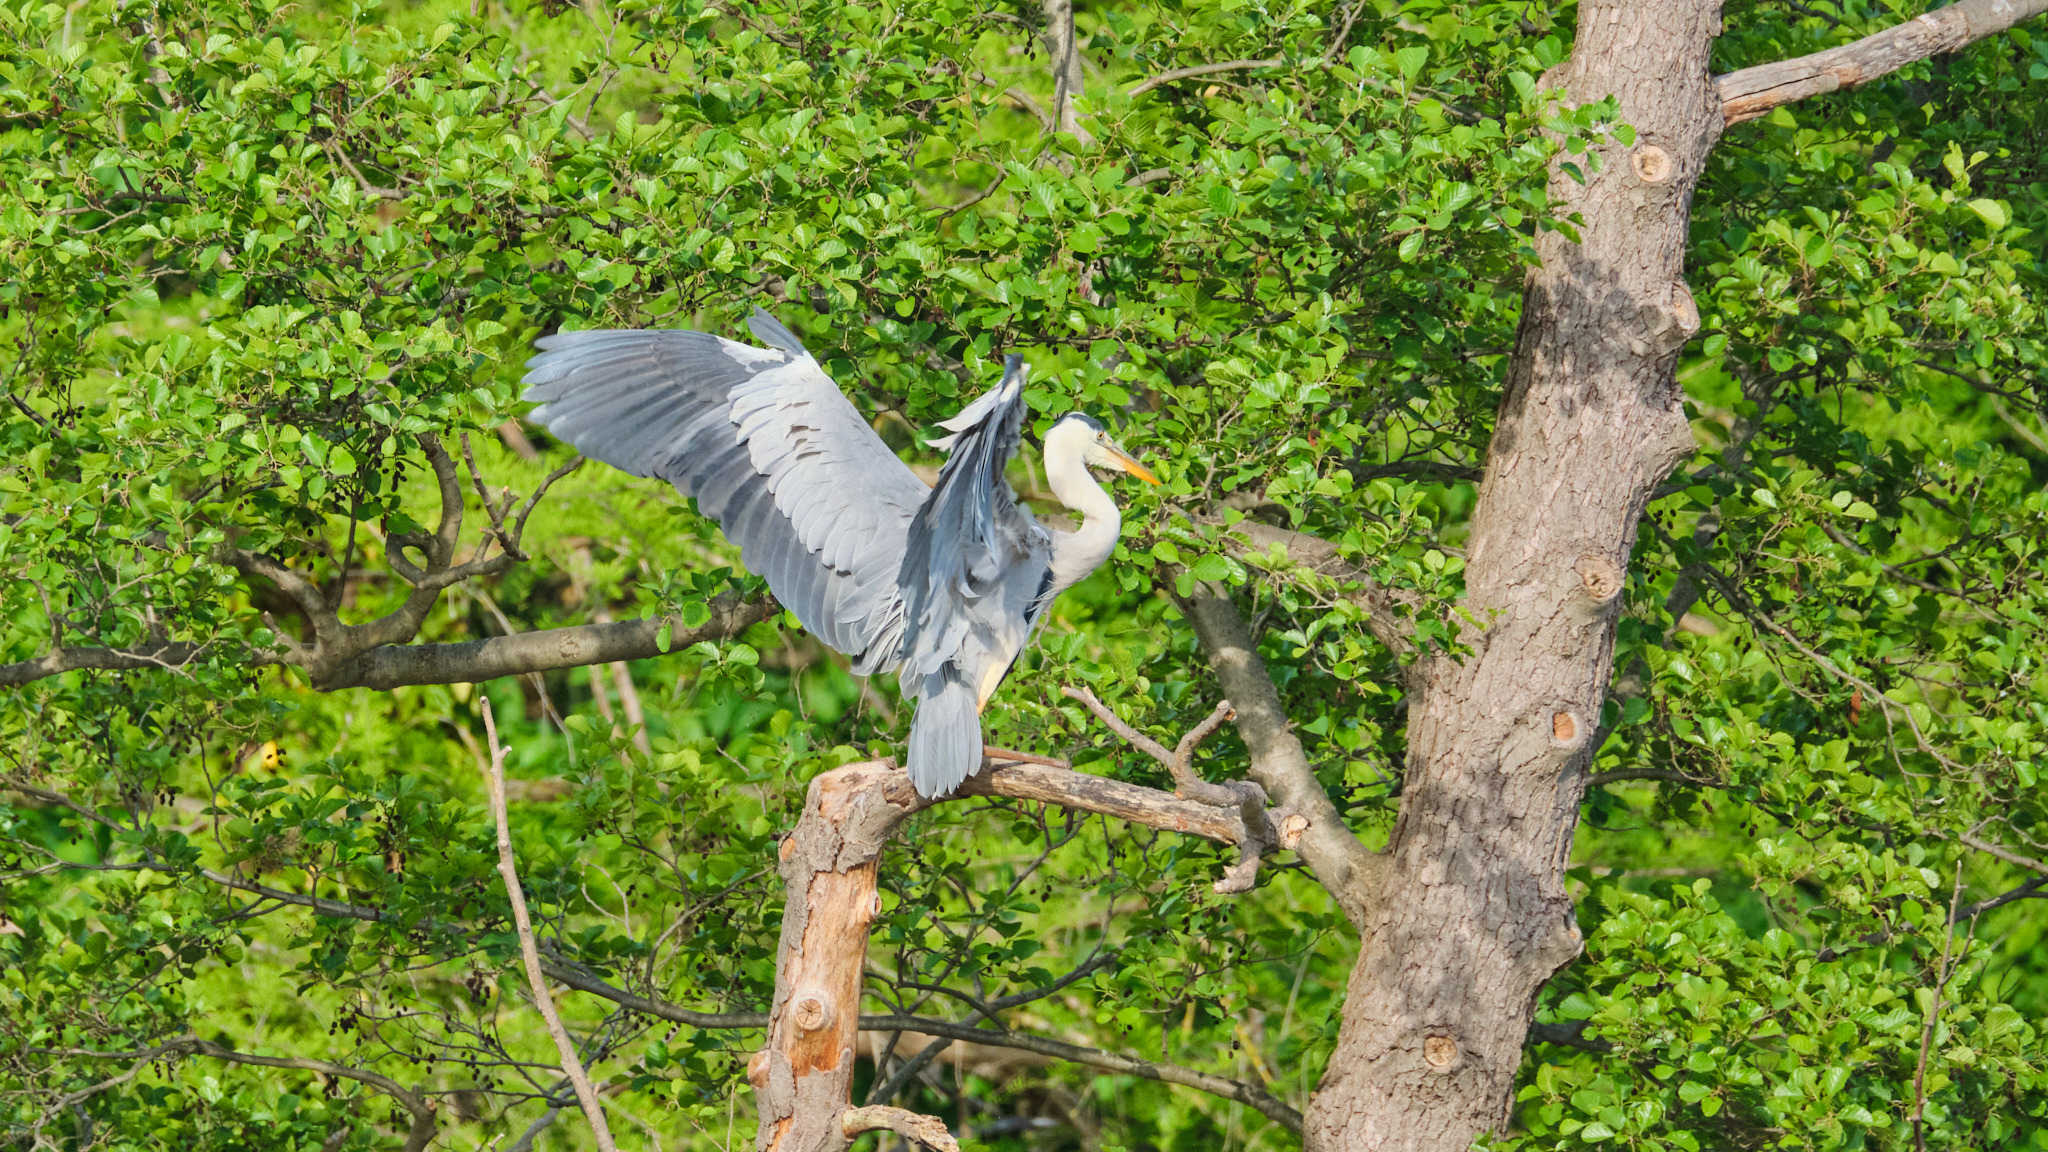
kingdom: Animalia
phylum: Chordata
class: Aves
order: Pelecaniformes
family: Ardeidae
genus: Ardea
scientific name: Ardea cinerea
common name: Grey heron
